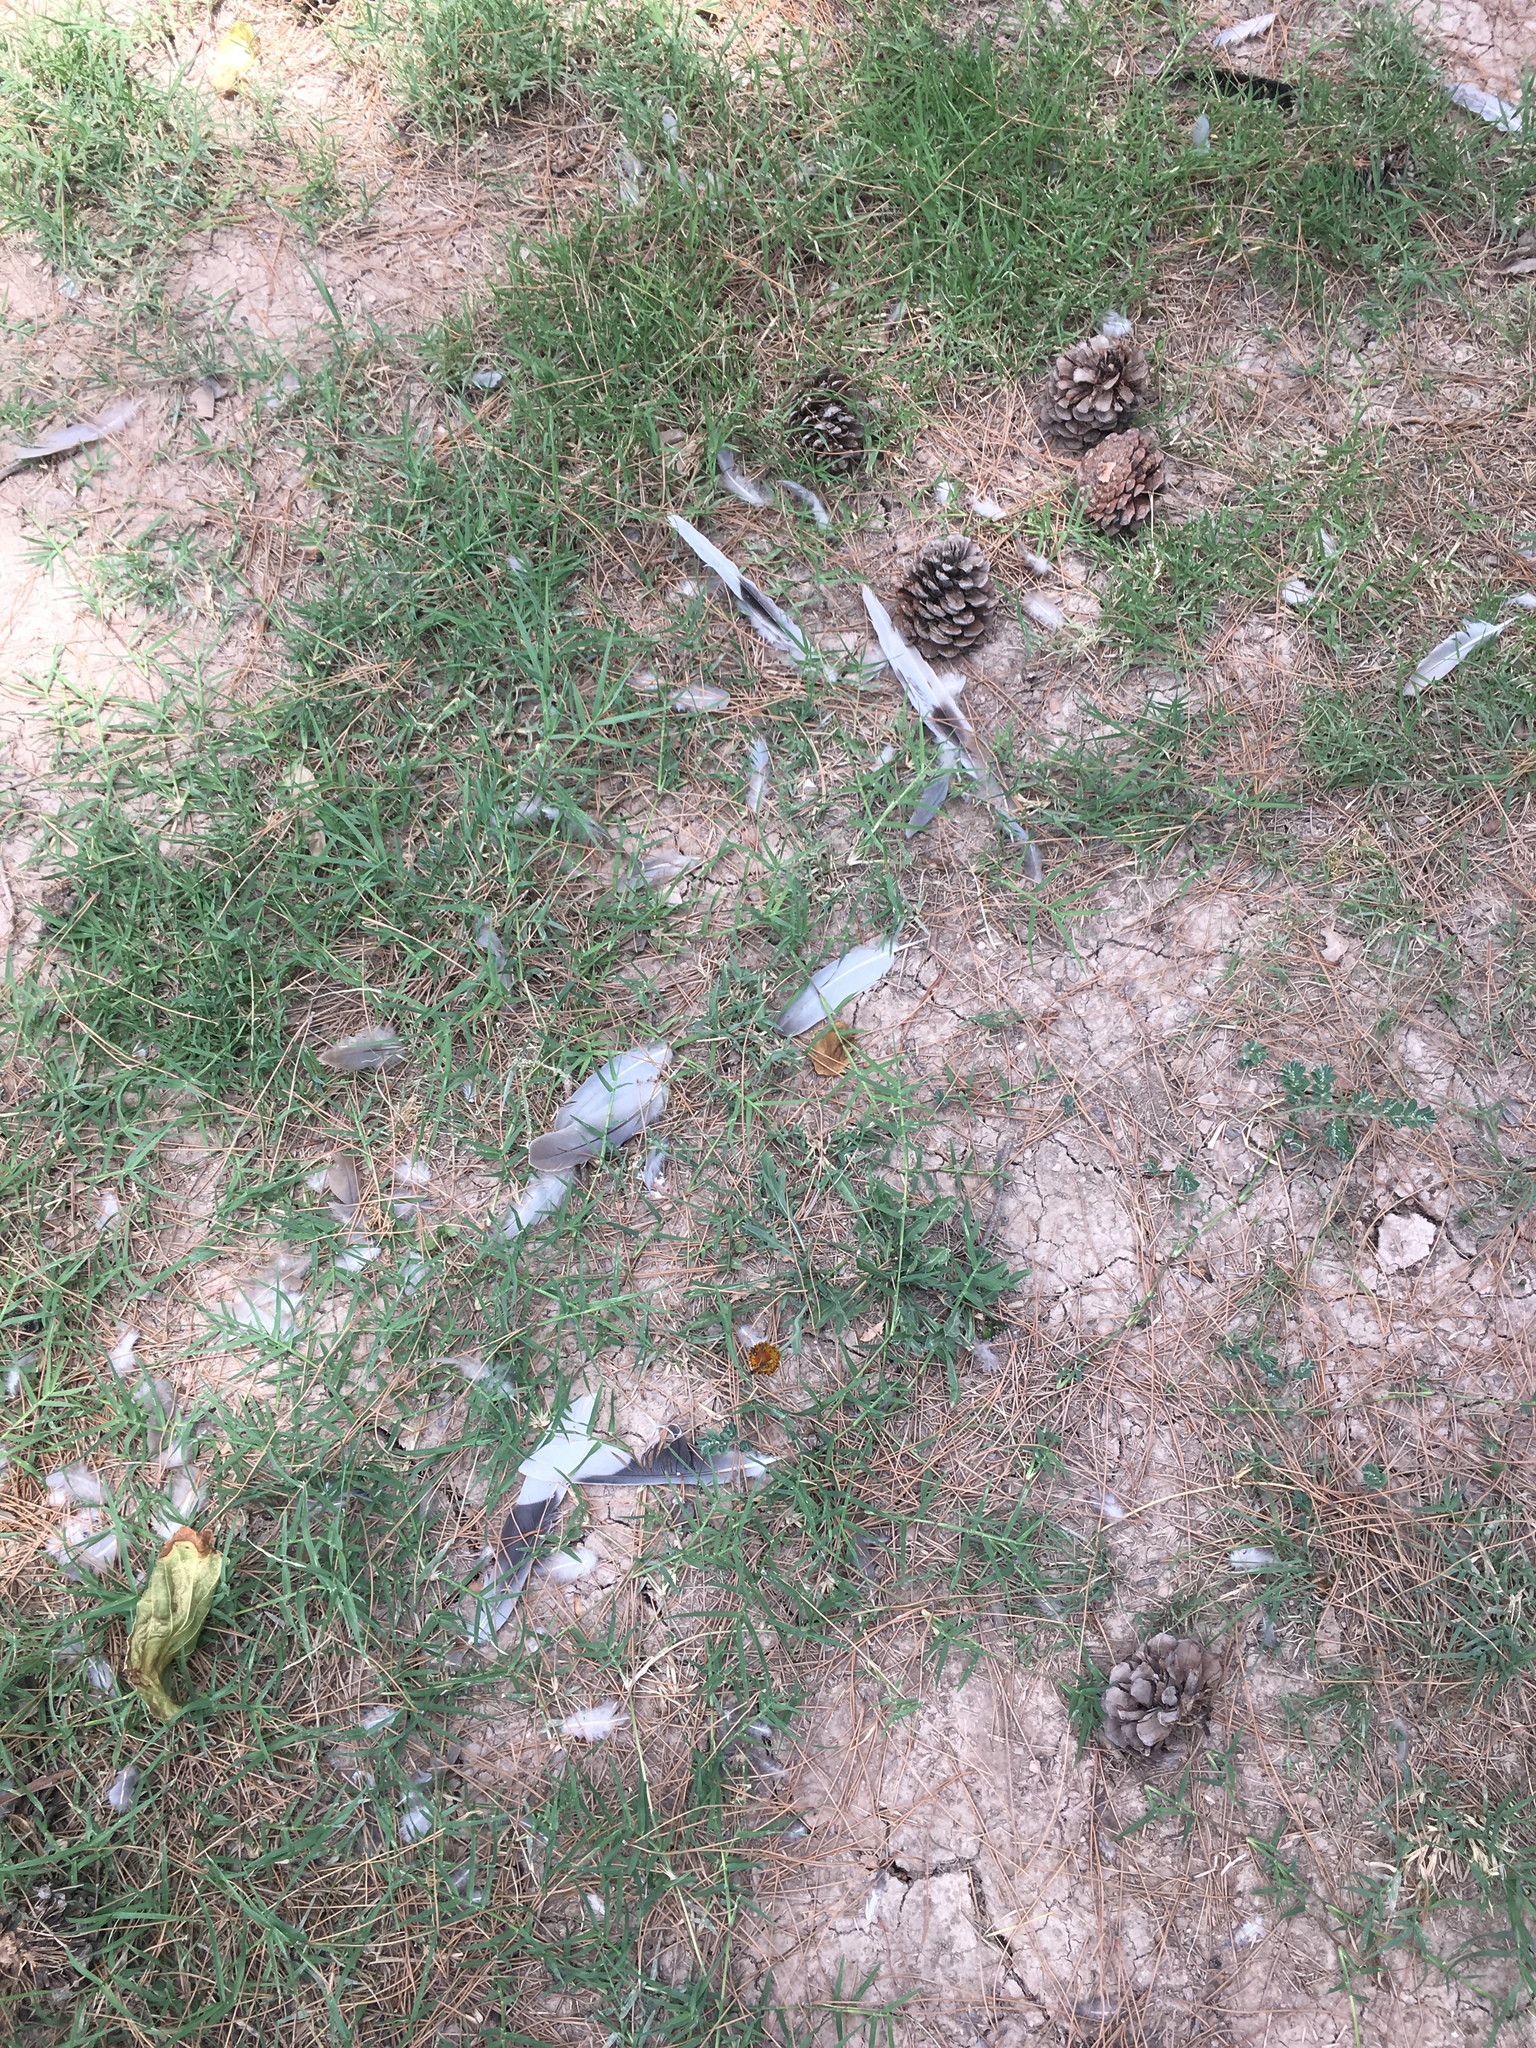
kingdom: Animalia
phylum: Chordata
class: Aves
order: Columbiformes
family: Columbidae
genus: Streptopelia
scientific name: Streptopelia decaocto
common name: Eurasian collared dove
